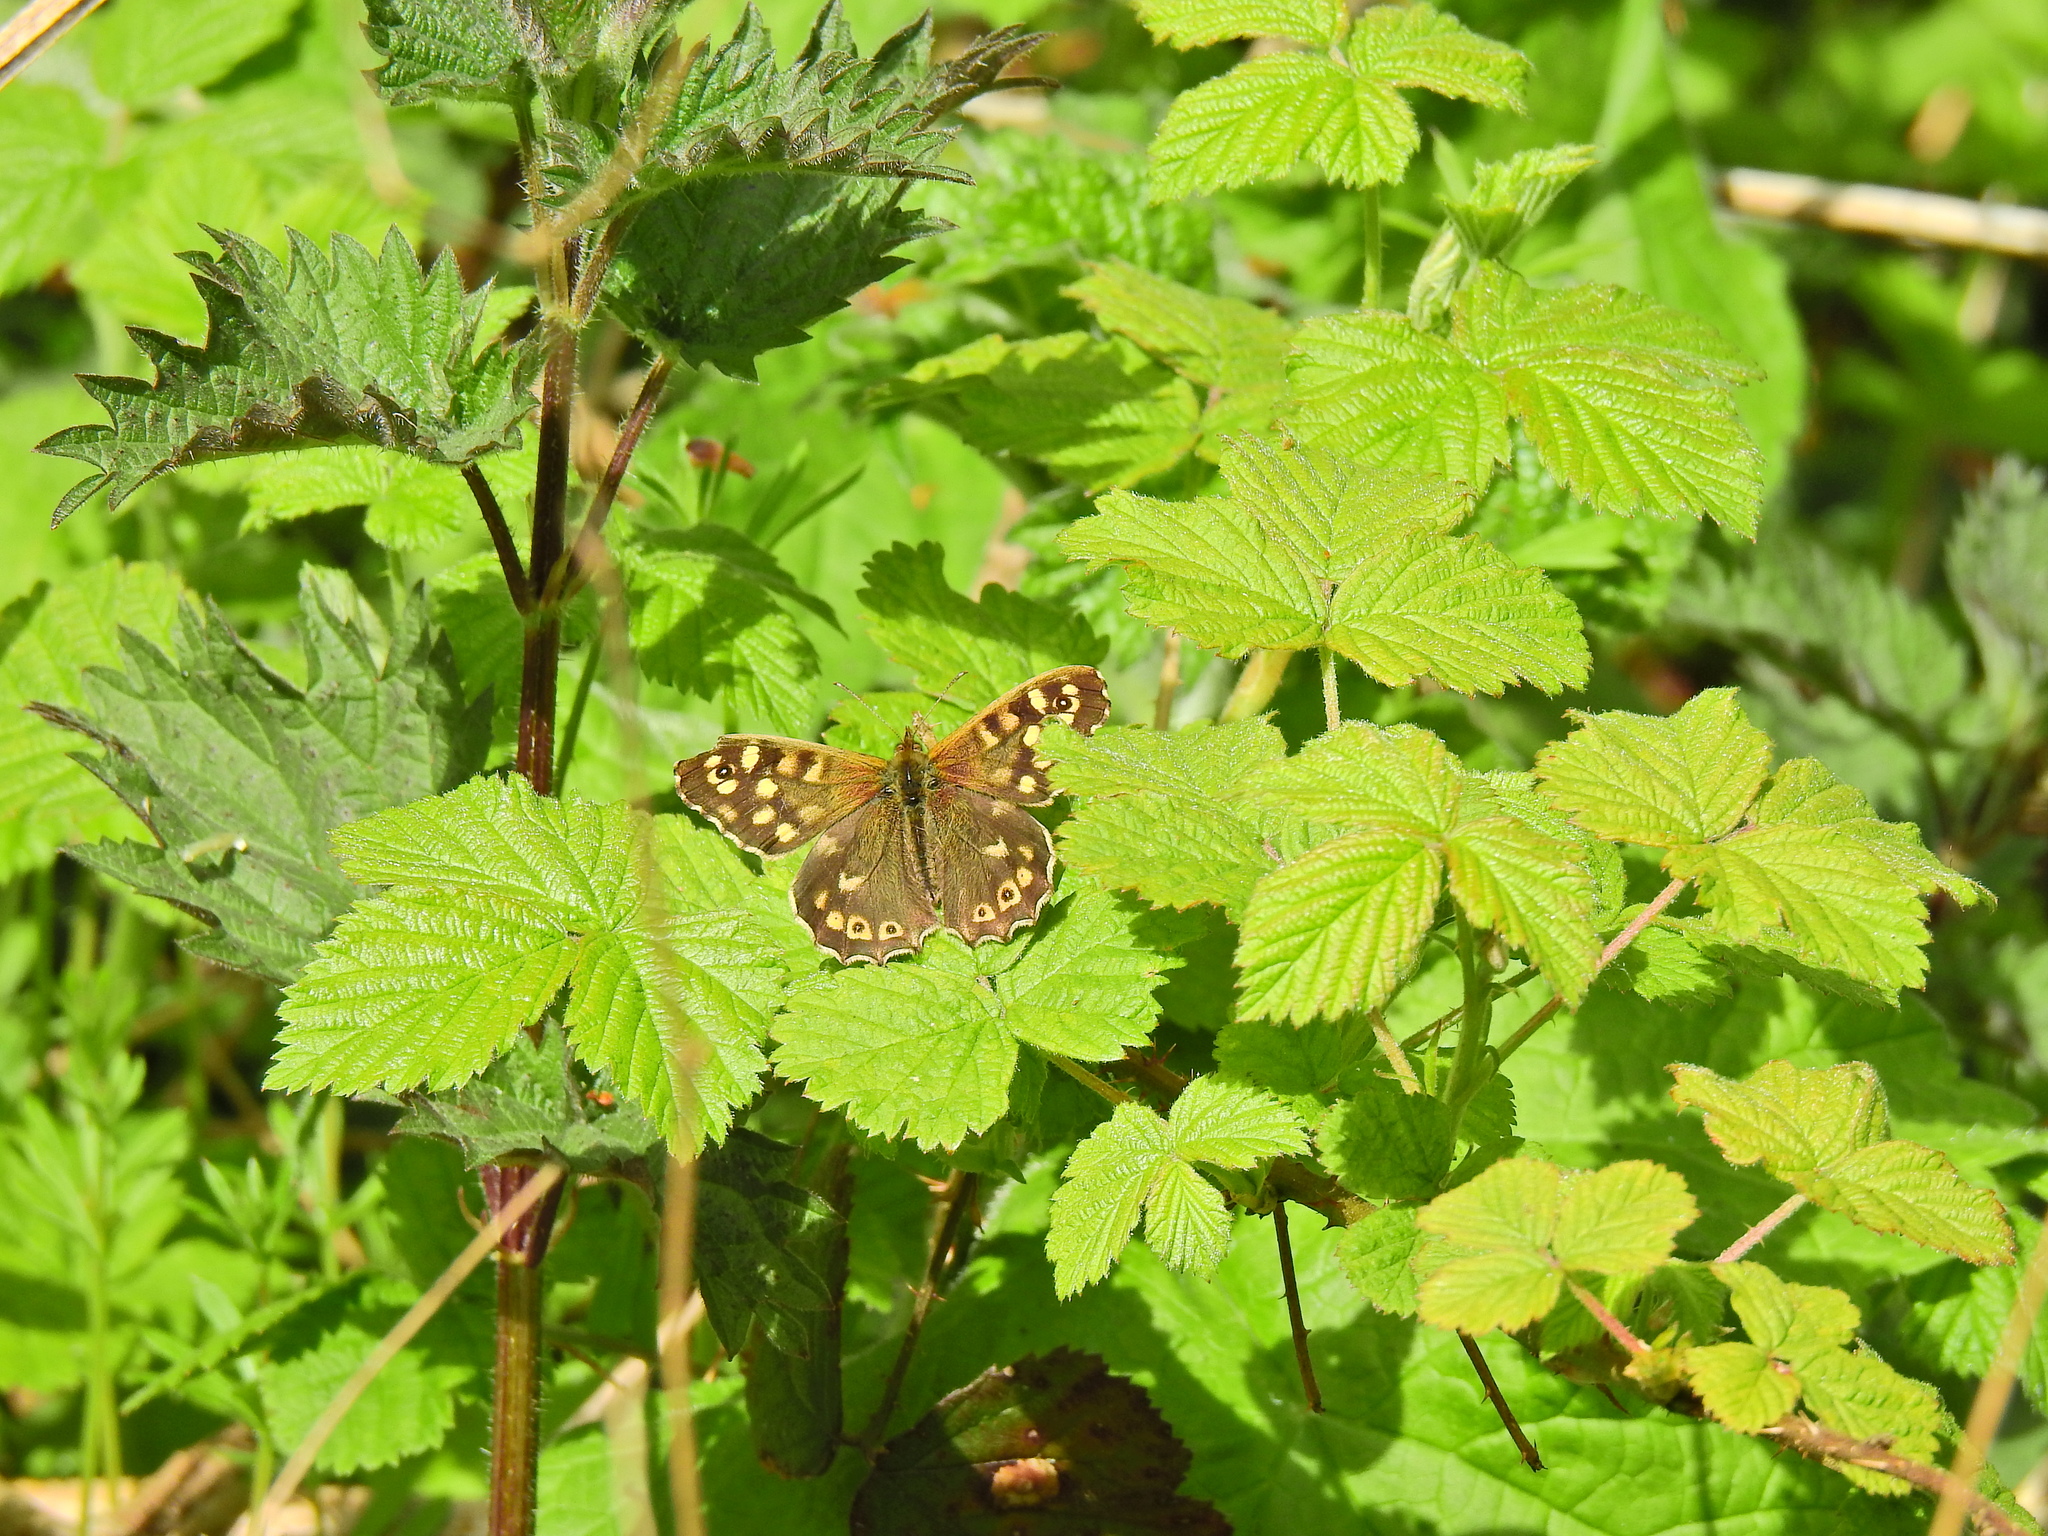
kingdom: Animalia
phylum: Arthropoda
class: Insecta
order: Lepidoptera
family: Nymphalidae
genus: Pararge
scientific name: Pararge aegeria
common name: Speckled wood
